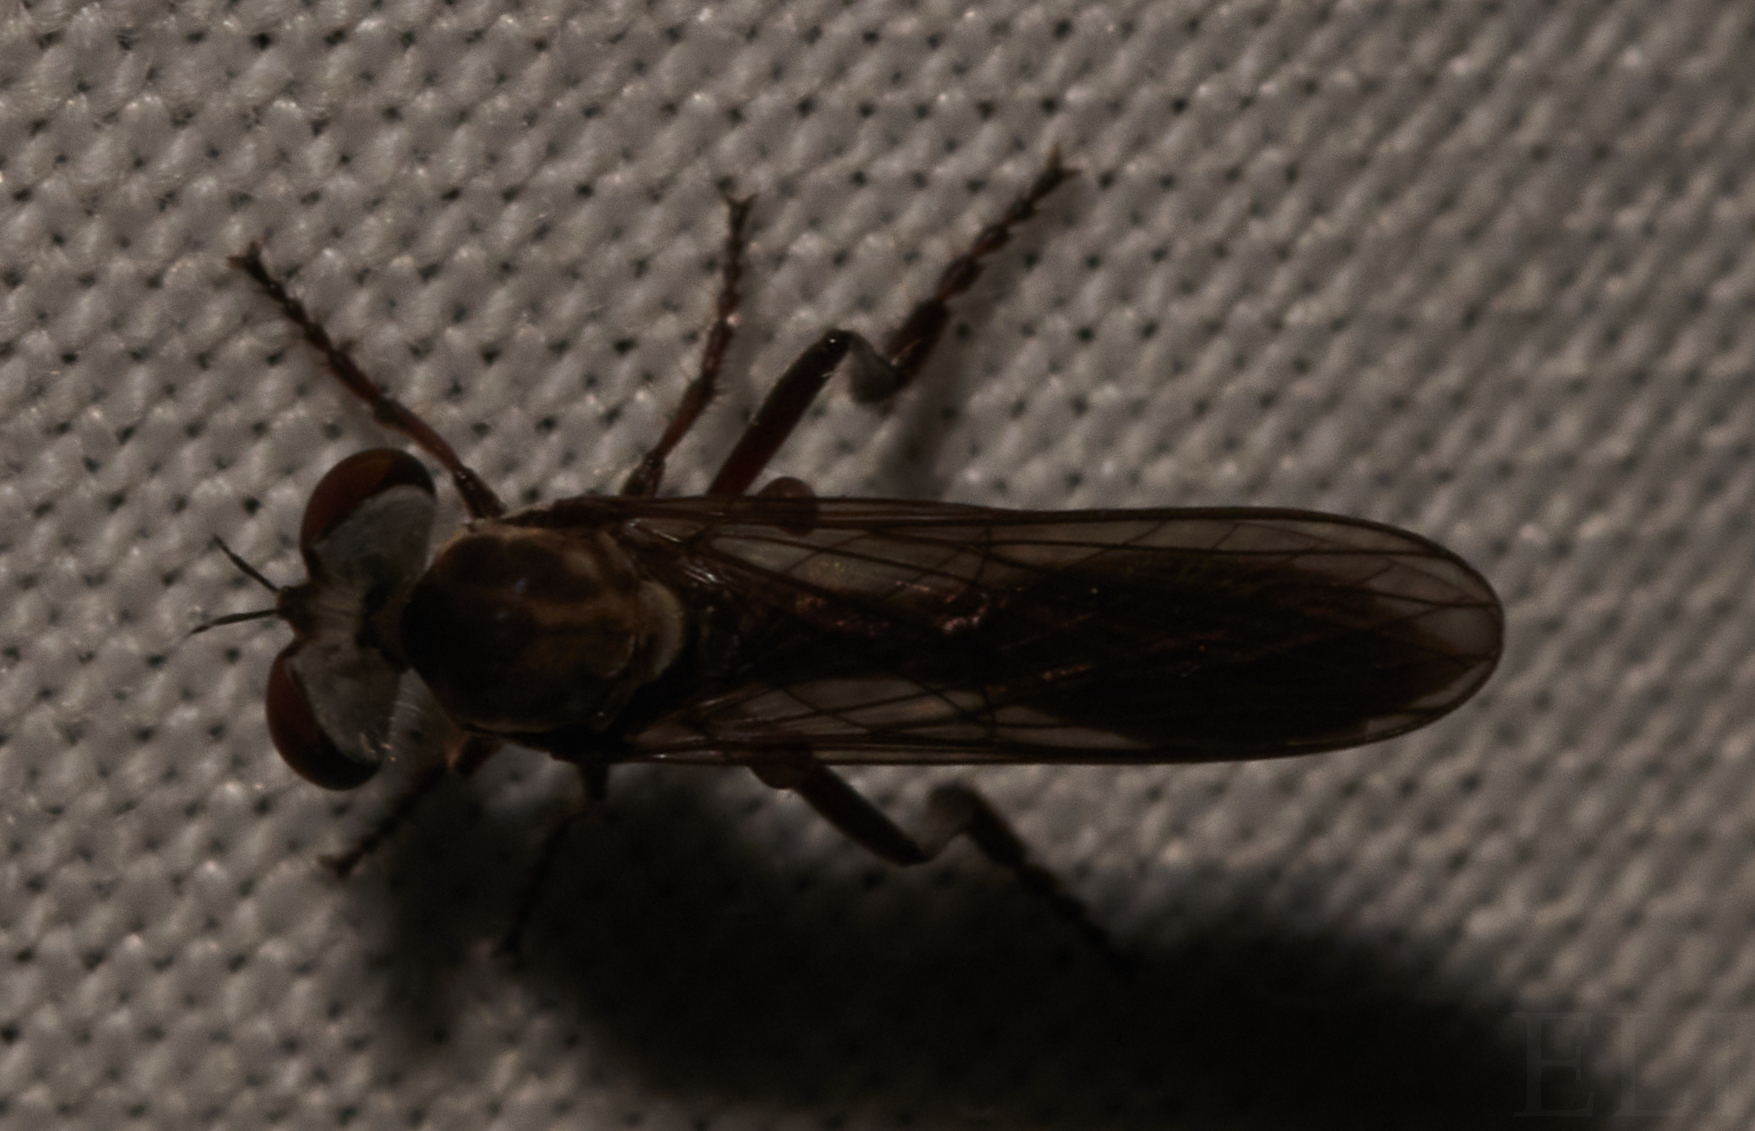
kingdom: Animalia
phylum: Arthropoda
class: Insecta
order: Diptera
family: Asilidae
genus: Holcocephala
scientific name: Holcocephala calva
